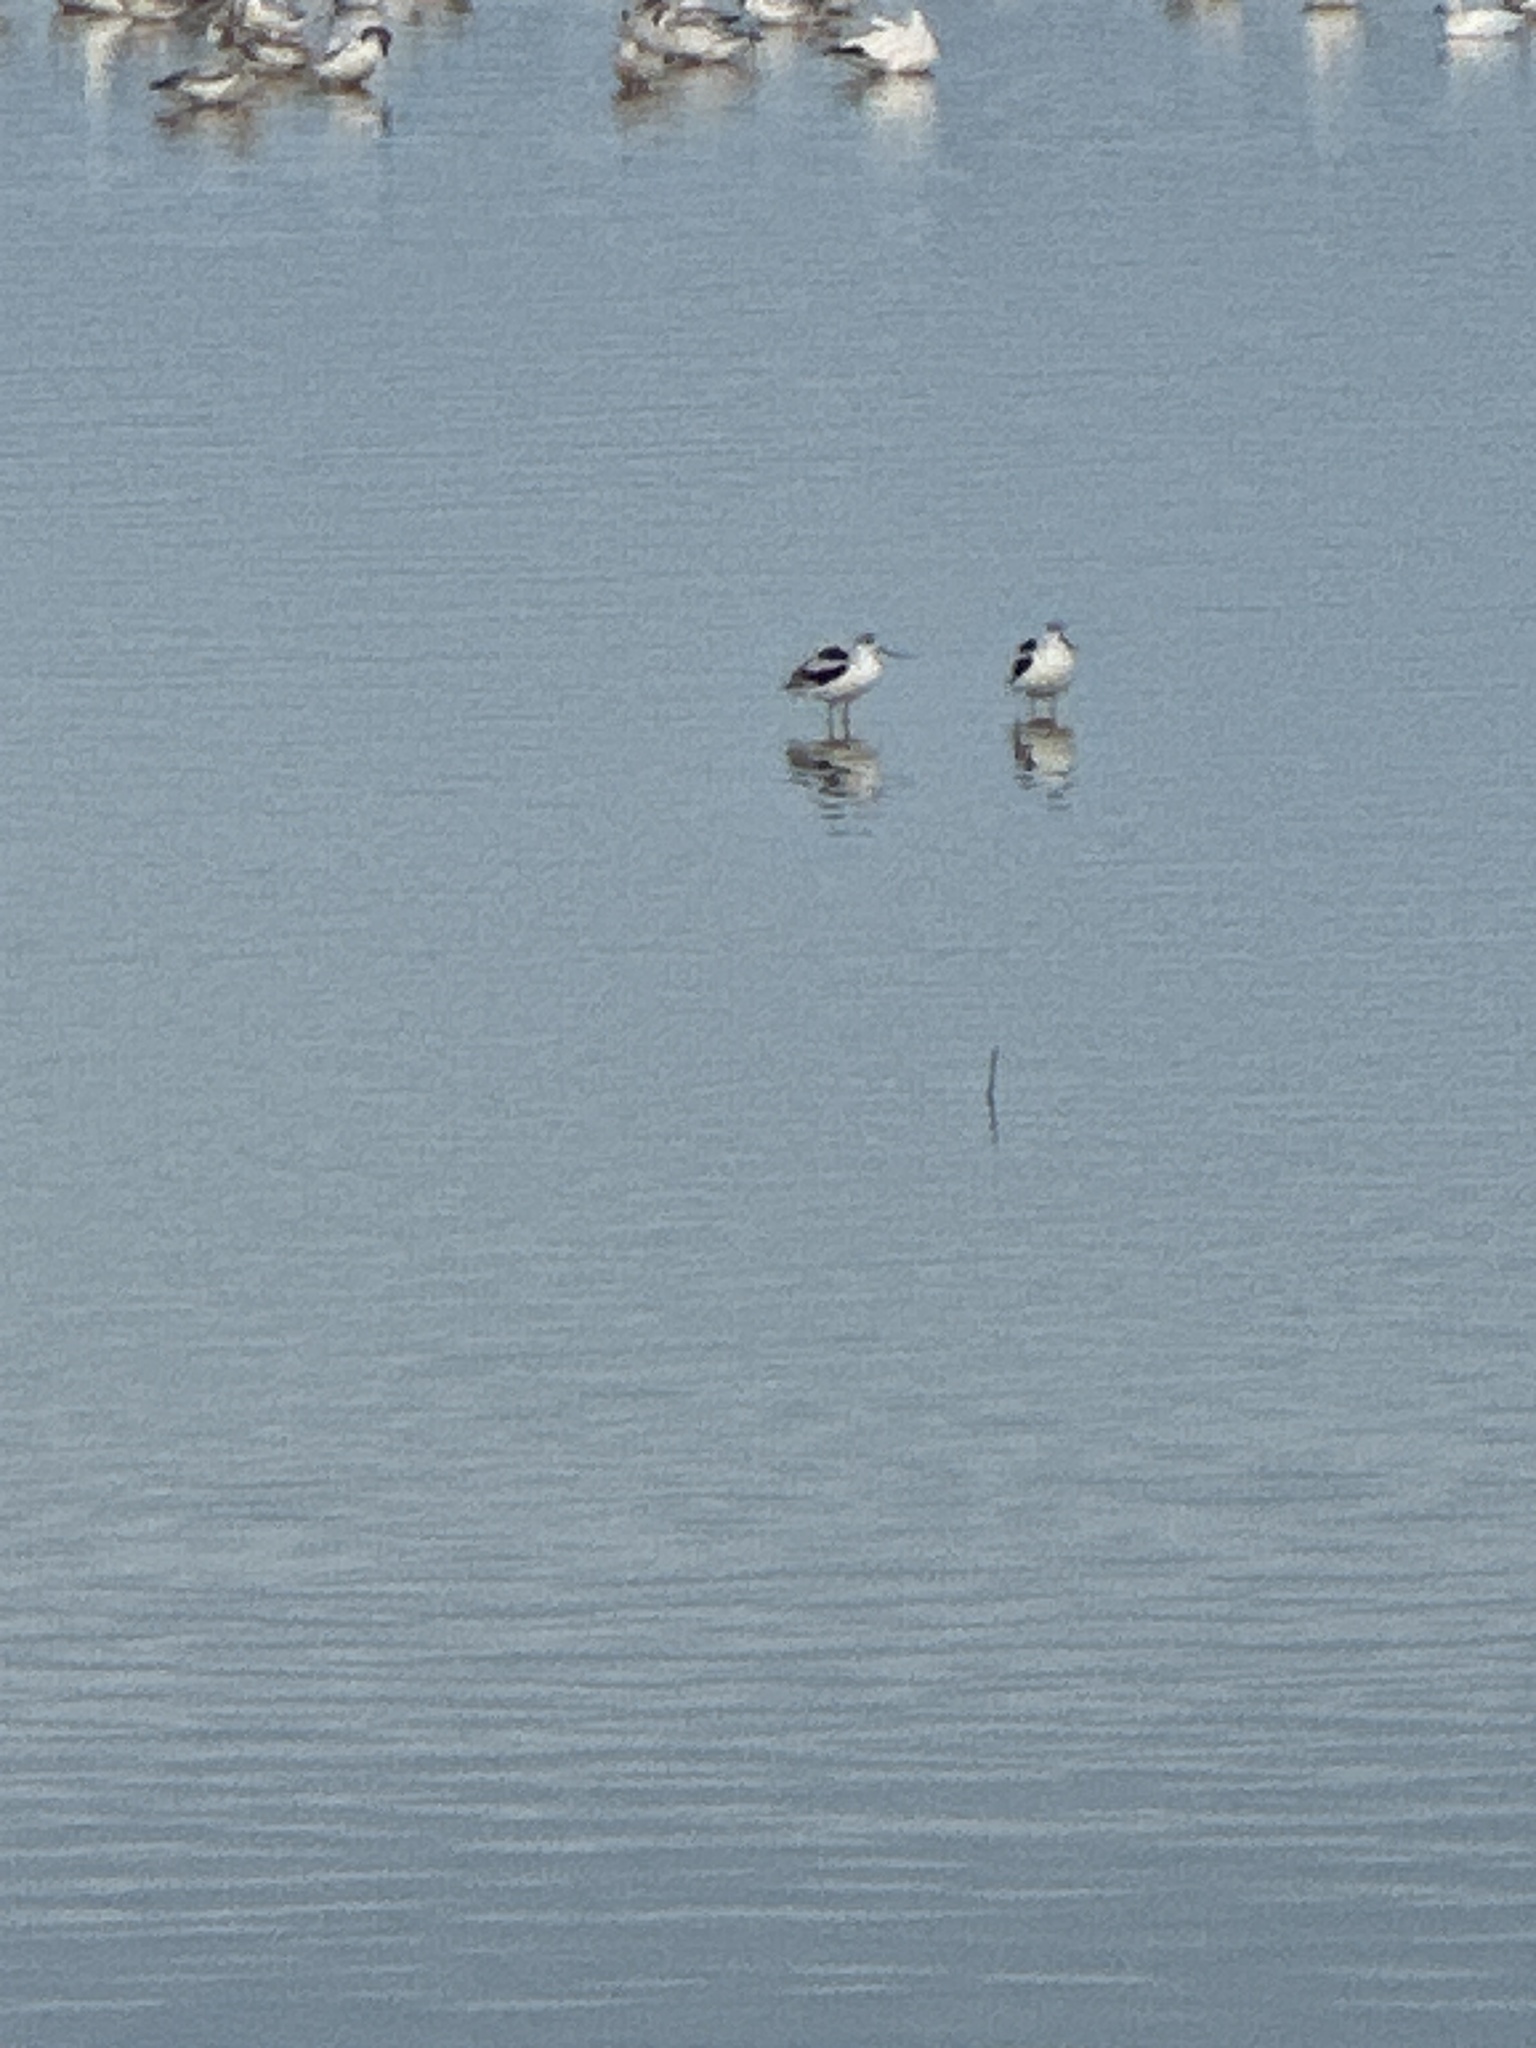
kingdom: Animalia
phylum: Chordata
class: Aves
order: Charadriiformes
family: Recurvirostridae
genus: Recurvirostra
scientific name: Recurvirostra americana
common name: American avocet
